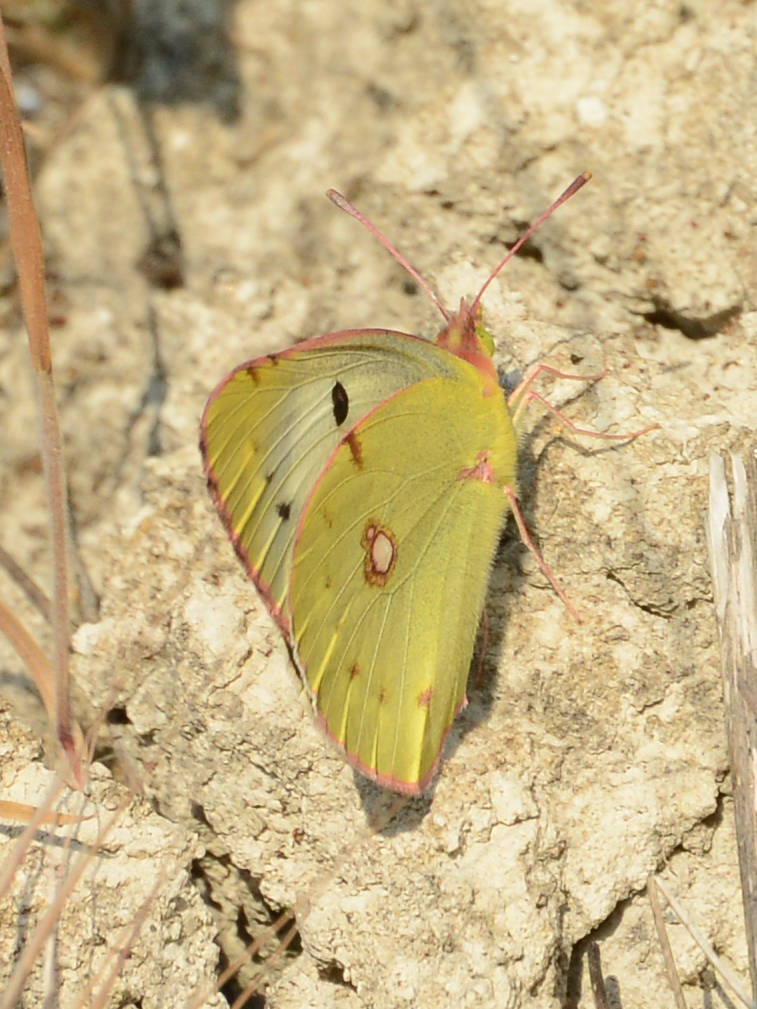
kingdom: Animalia
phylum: Arthropoda
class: Insecta
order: Lepidoptera
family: Pieridae
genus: Colias
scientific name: Colias croceus
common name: Clouded yellow
